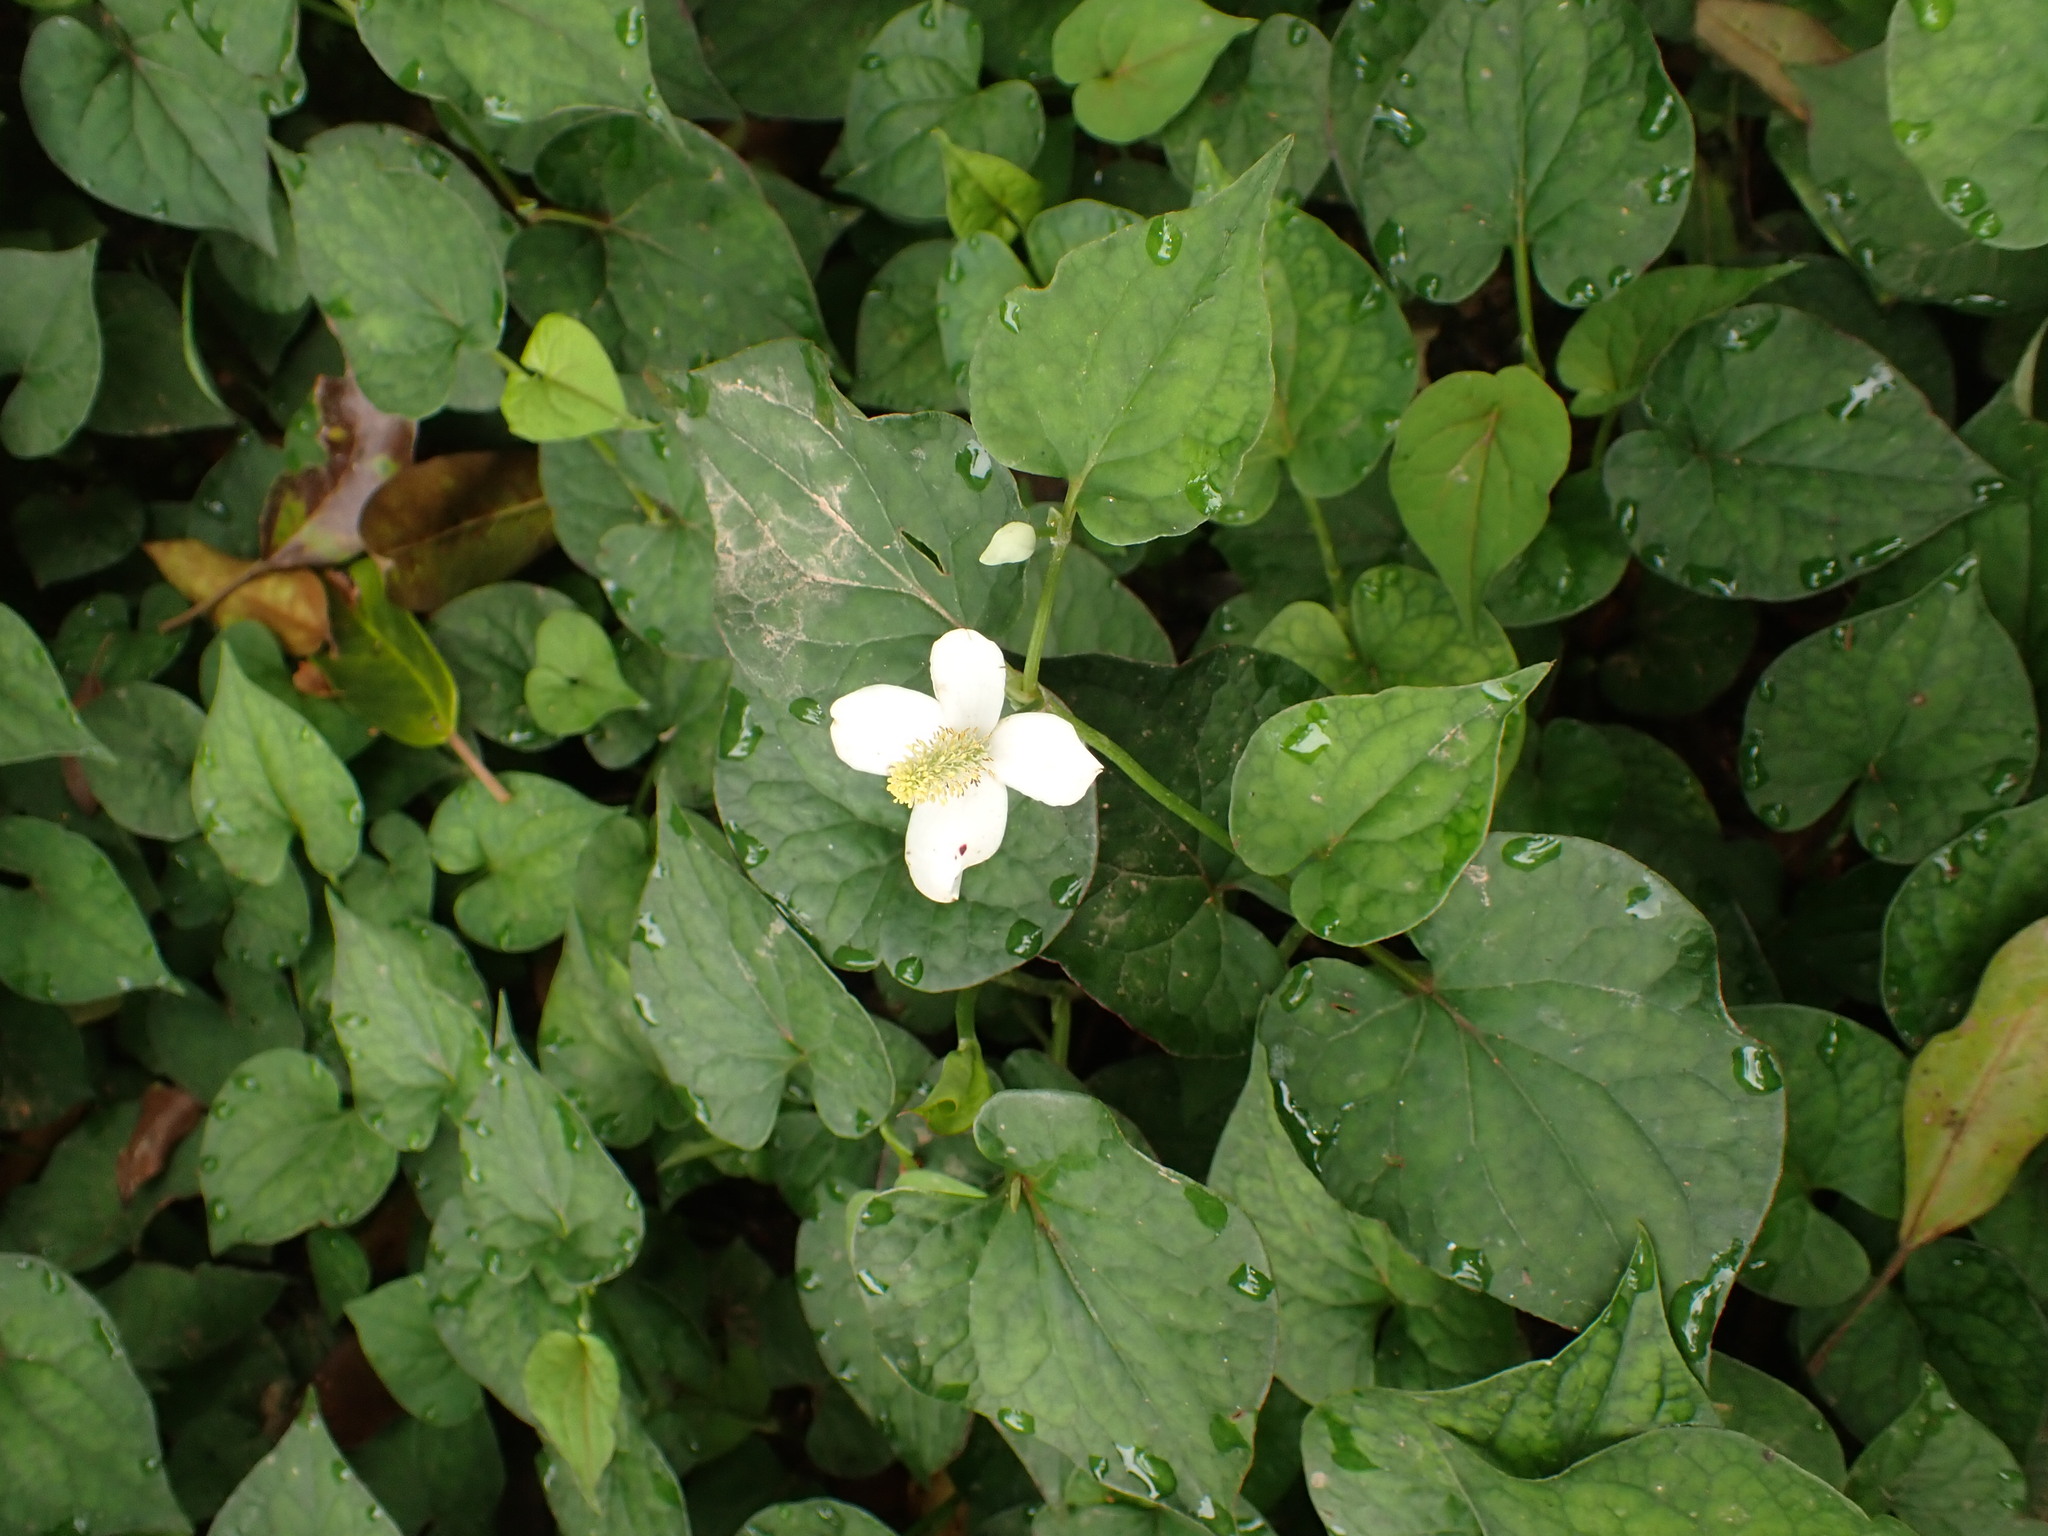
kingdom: Plantae
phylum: Tracheophyta
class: Magnoliopsida
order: Piperales
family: Saururaceae
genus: Houttuynia
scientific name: Houttuynia cordata
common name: Chameleon
